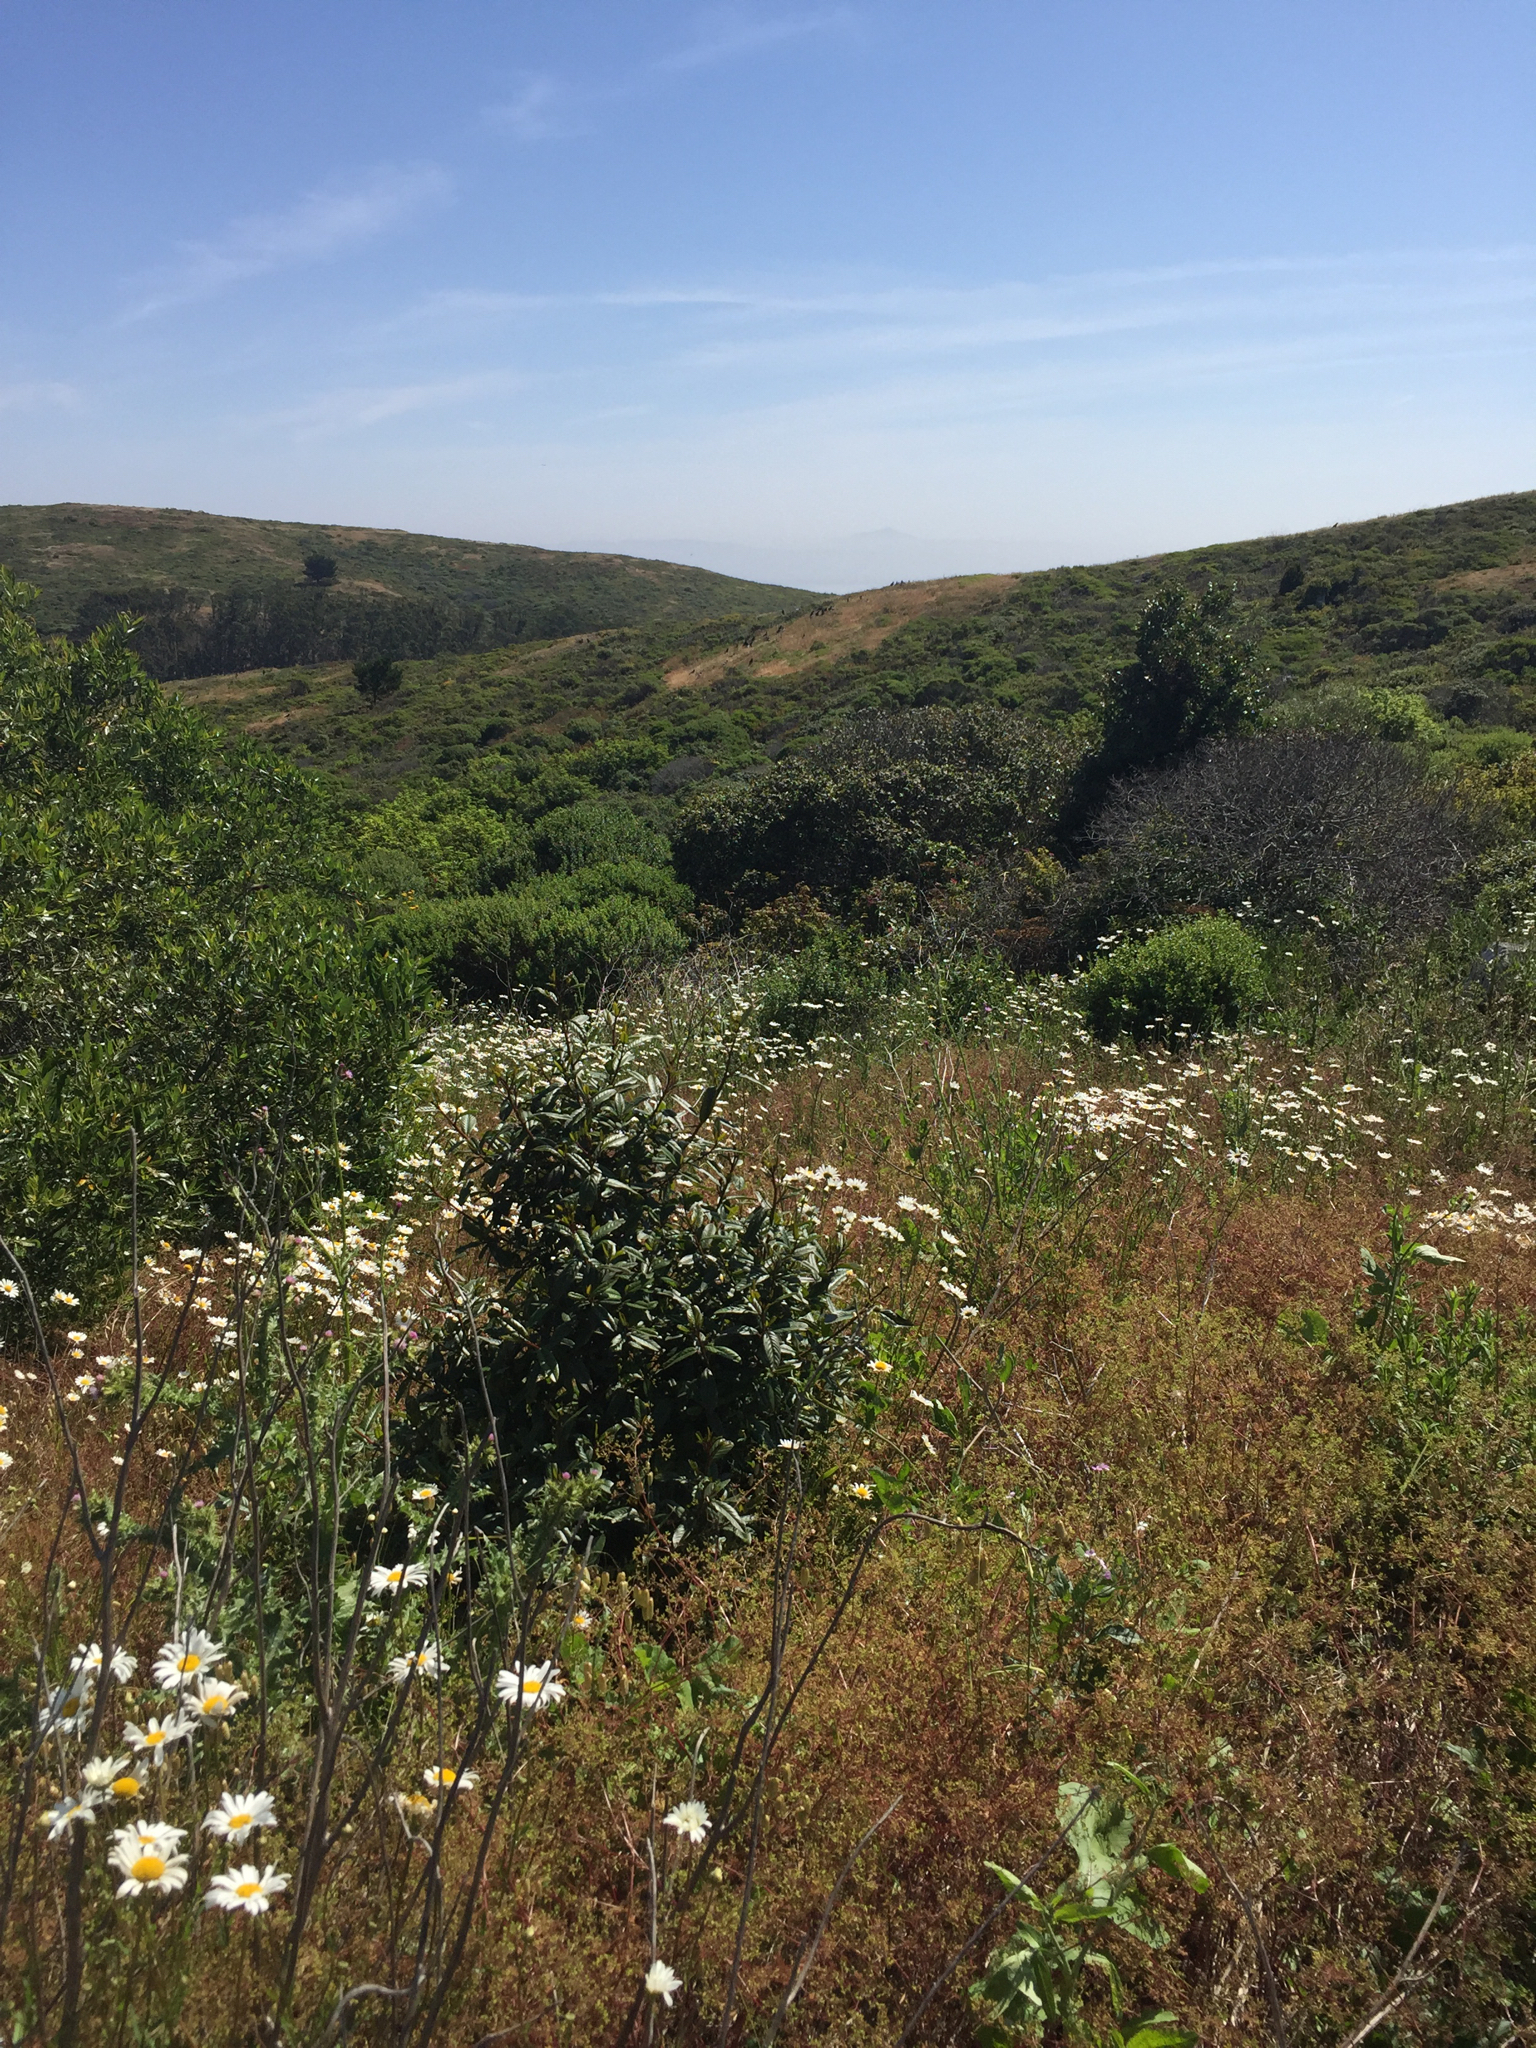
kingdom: Animalia
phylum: Chordata
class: Aves
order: Passeriformes
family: Corvidae
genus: Corvus
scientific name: Corvus corax
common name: Common raven
